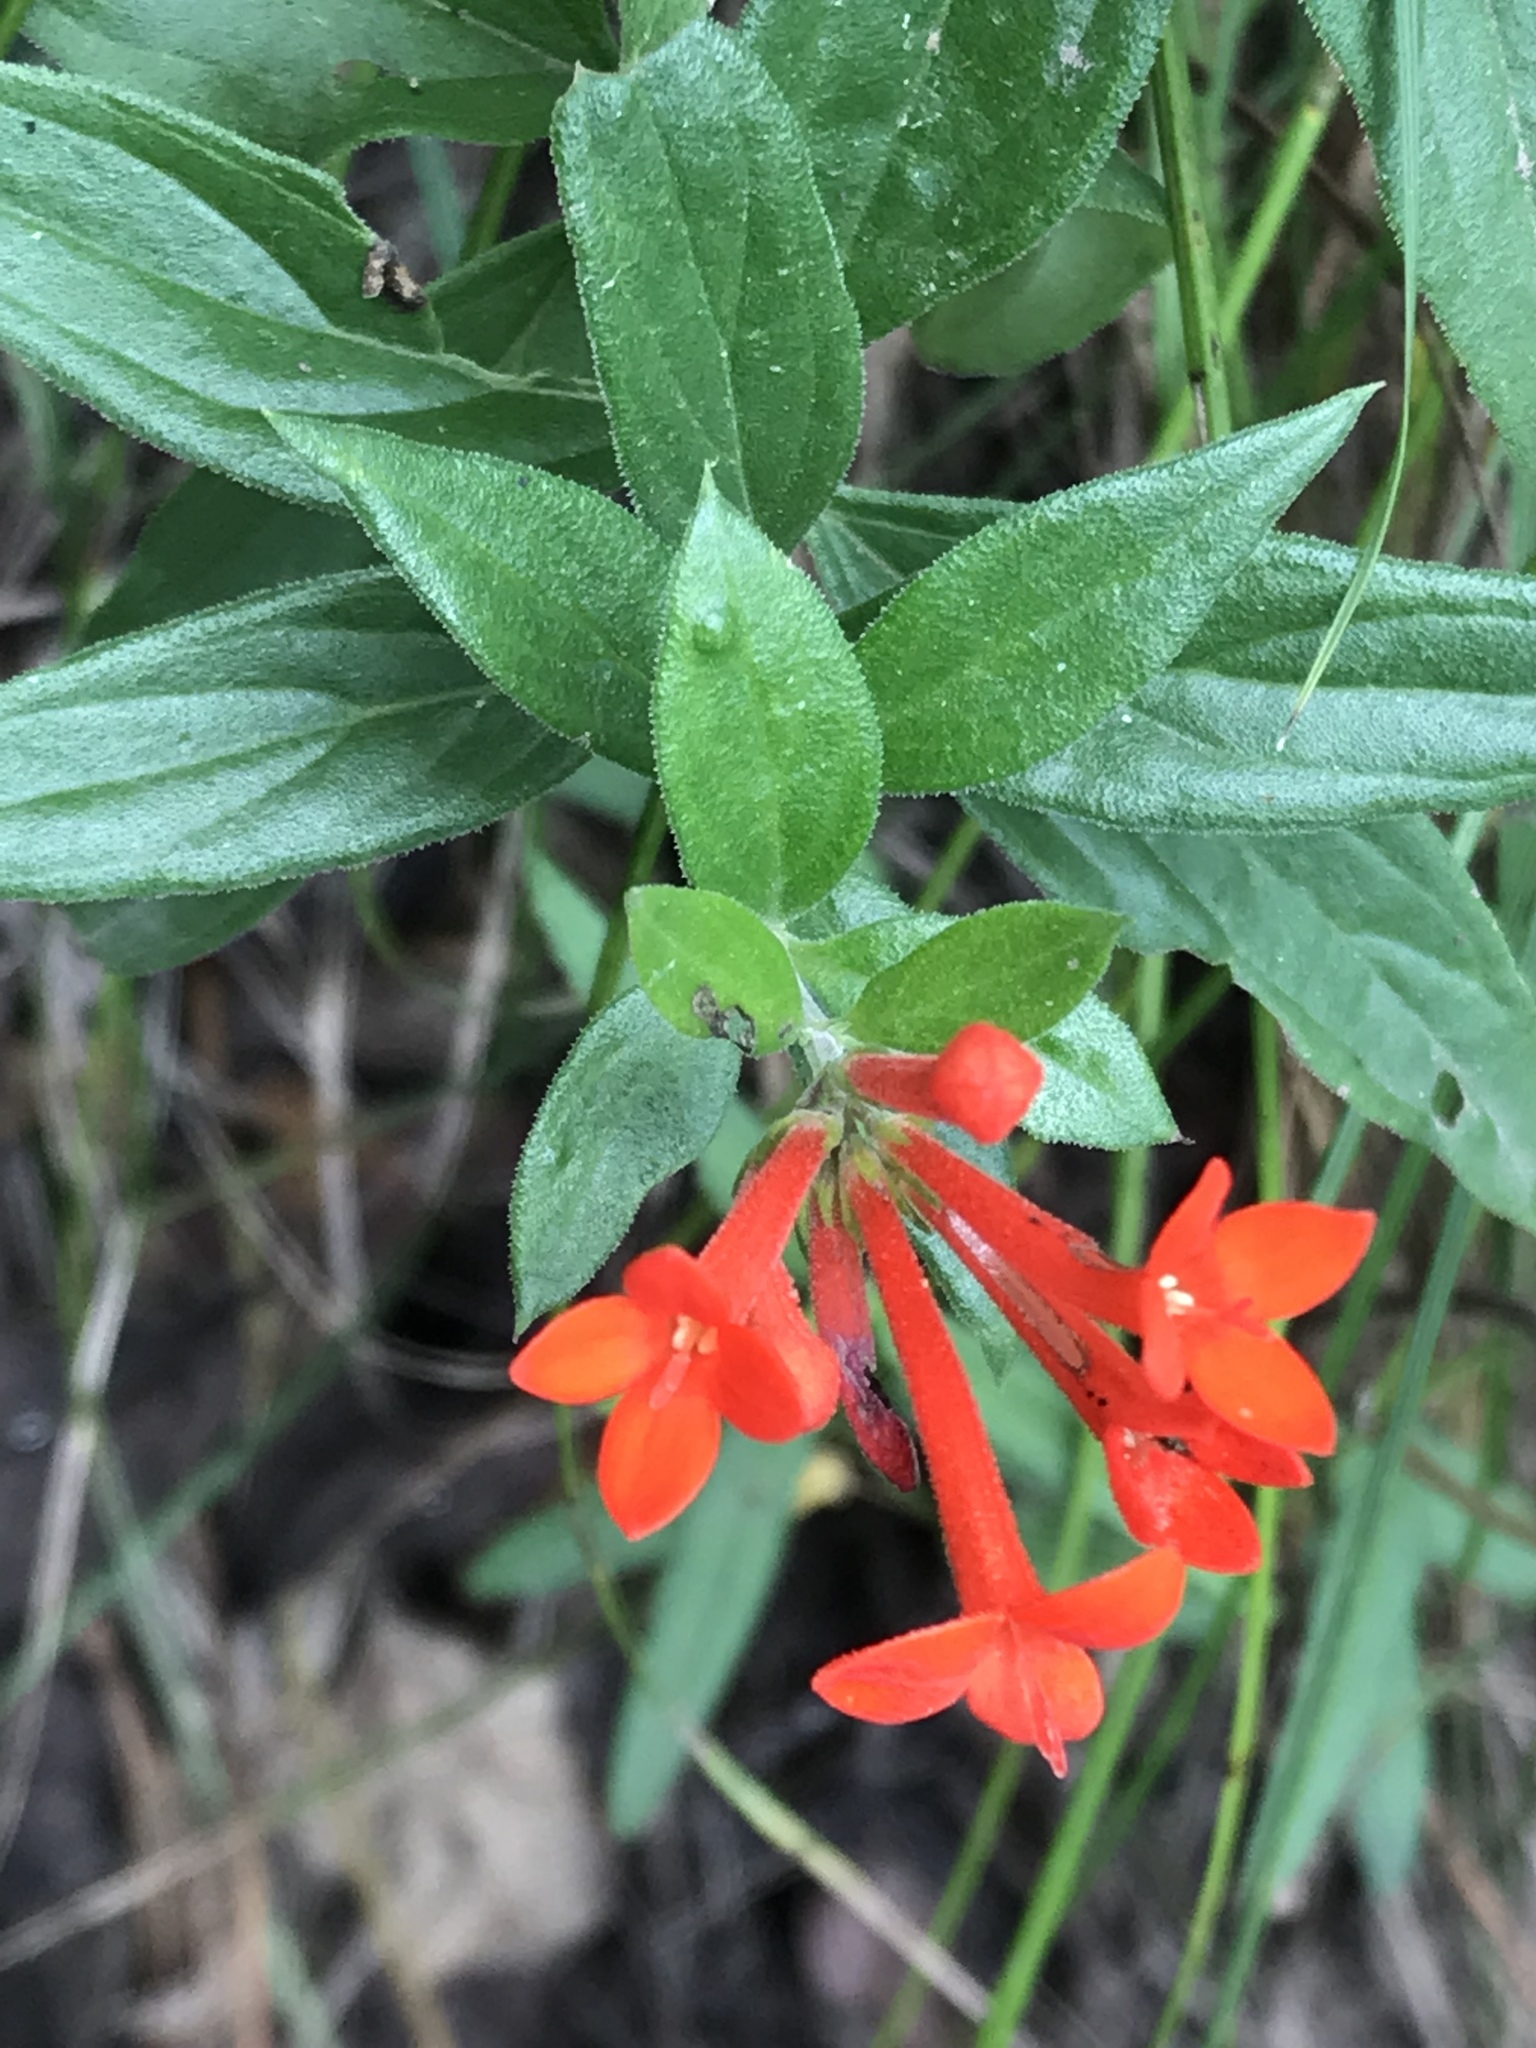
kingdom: Plantae
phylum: Tracheophyta
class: Magnoliopsida
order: Gentianales
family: Rubiaceae
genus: Bouvardia
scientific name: Bouvardia ternifolia
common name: Scarlet bouvardia
